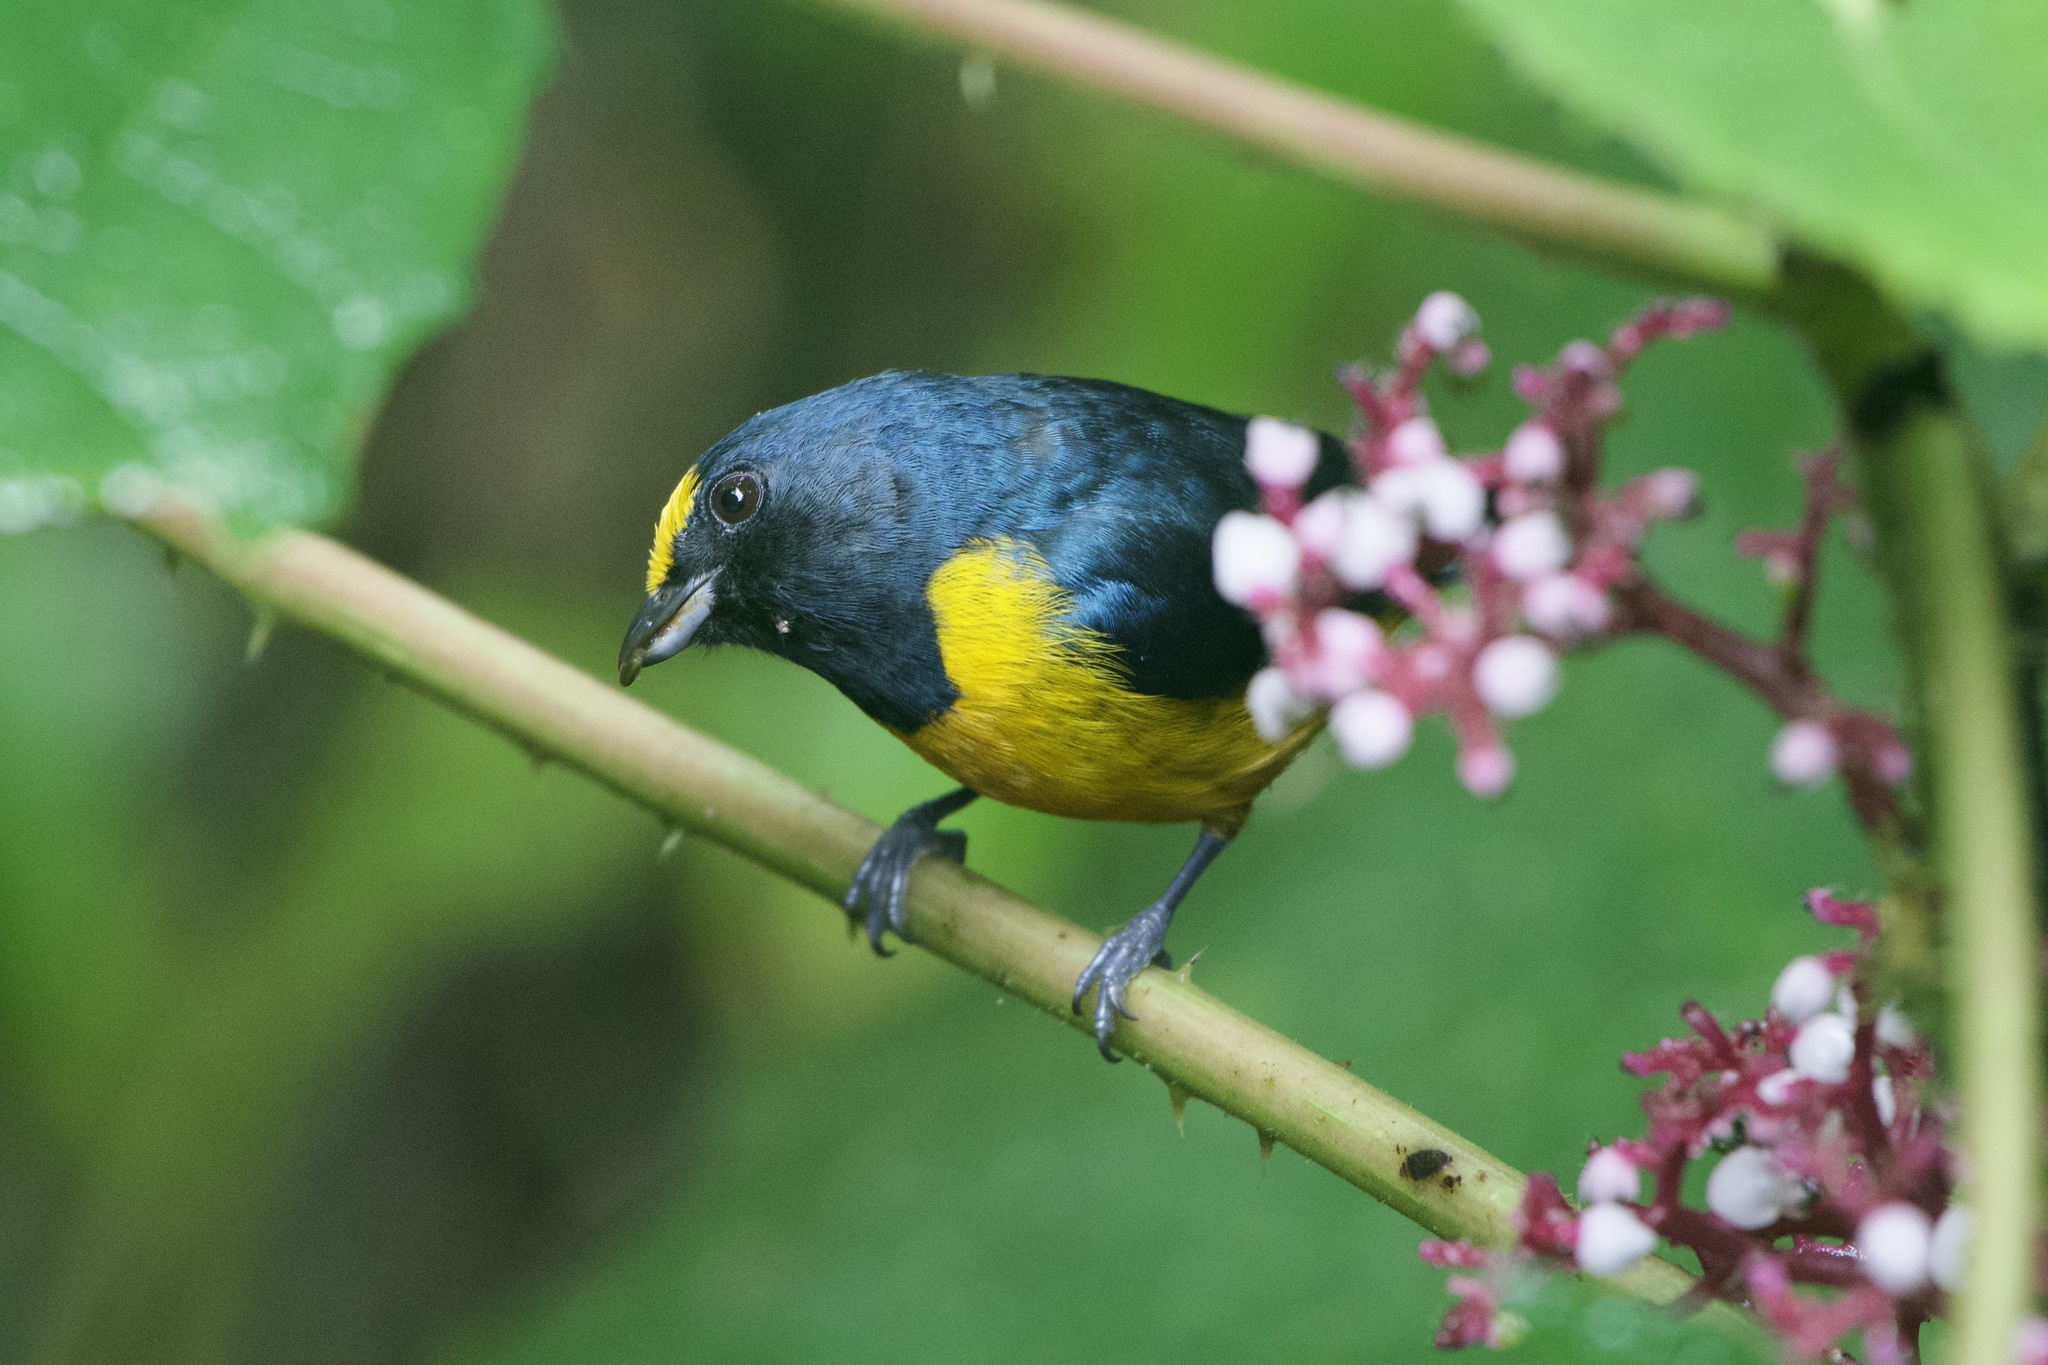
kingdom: Animalia
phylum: Chordata
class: Aves
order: Passeriformes
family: Fringillidae
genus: Euphonia
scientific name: Euphonia fulvicrissa
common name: Fulvous-vented euphonia
